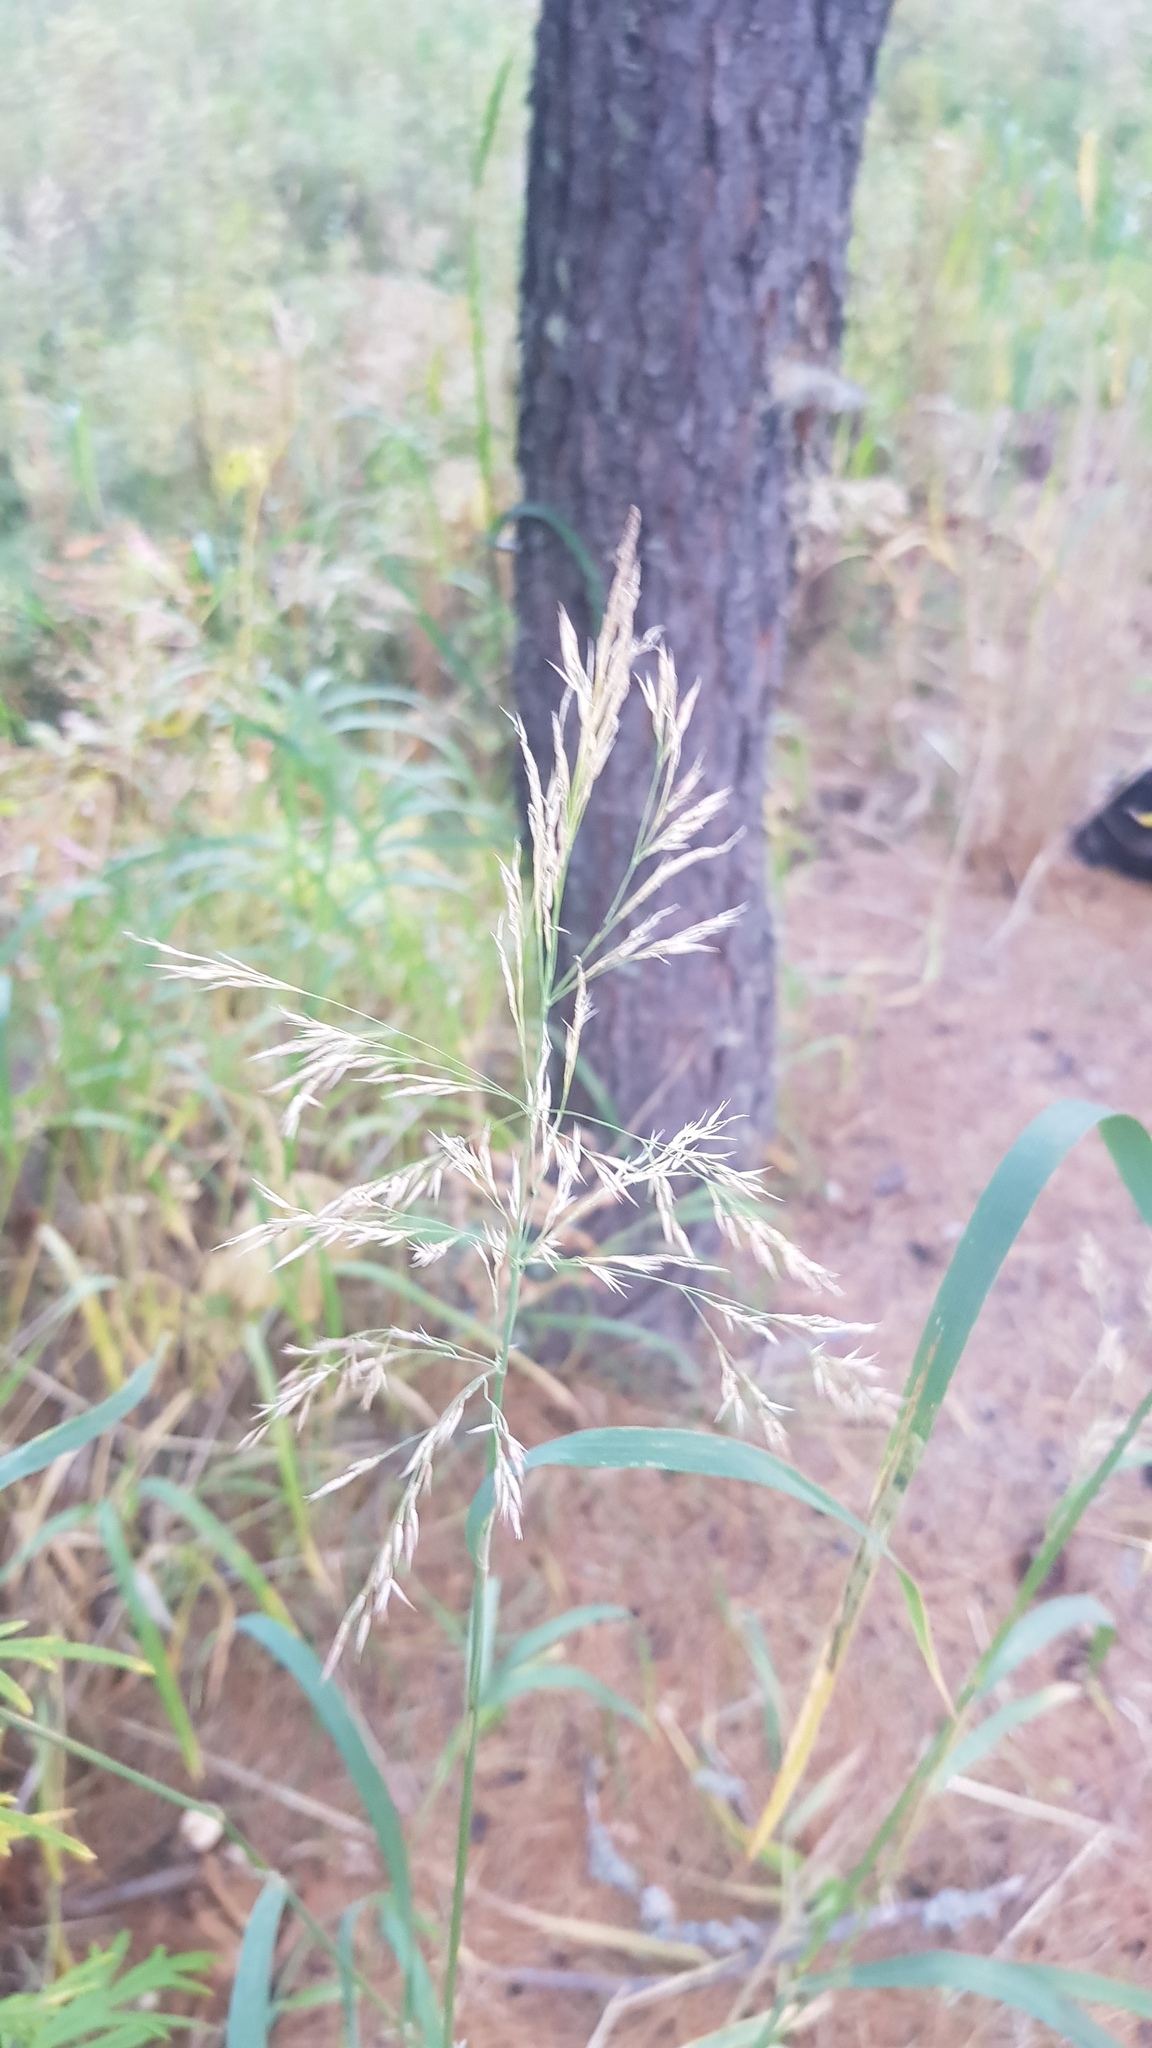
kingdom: Plantae
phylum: Tracheophyta
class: Liliopsida
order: Poales
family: Poaceae
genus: Agrostis
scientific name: Agrostis gigantea
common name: Black bent
